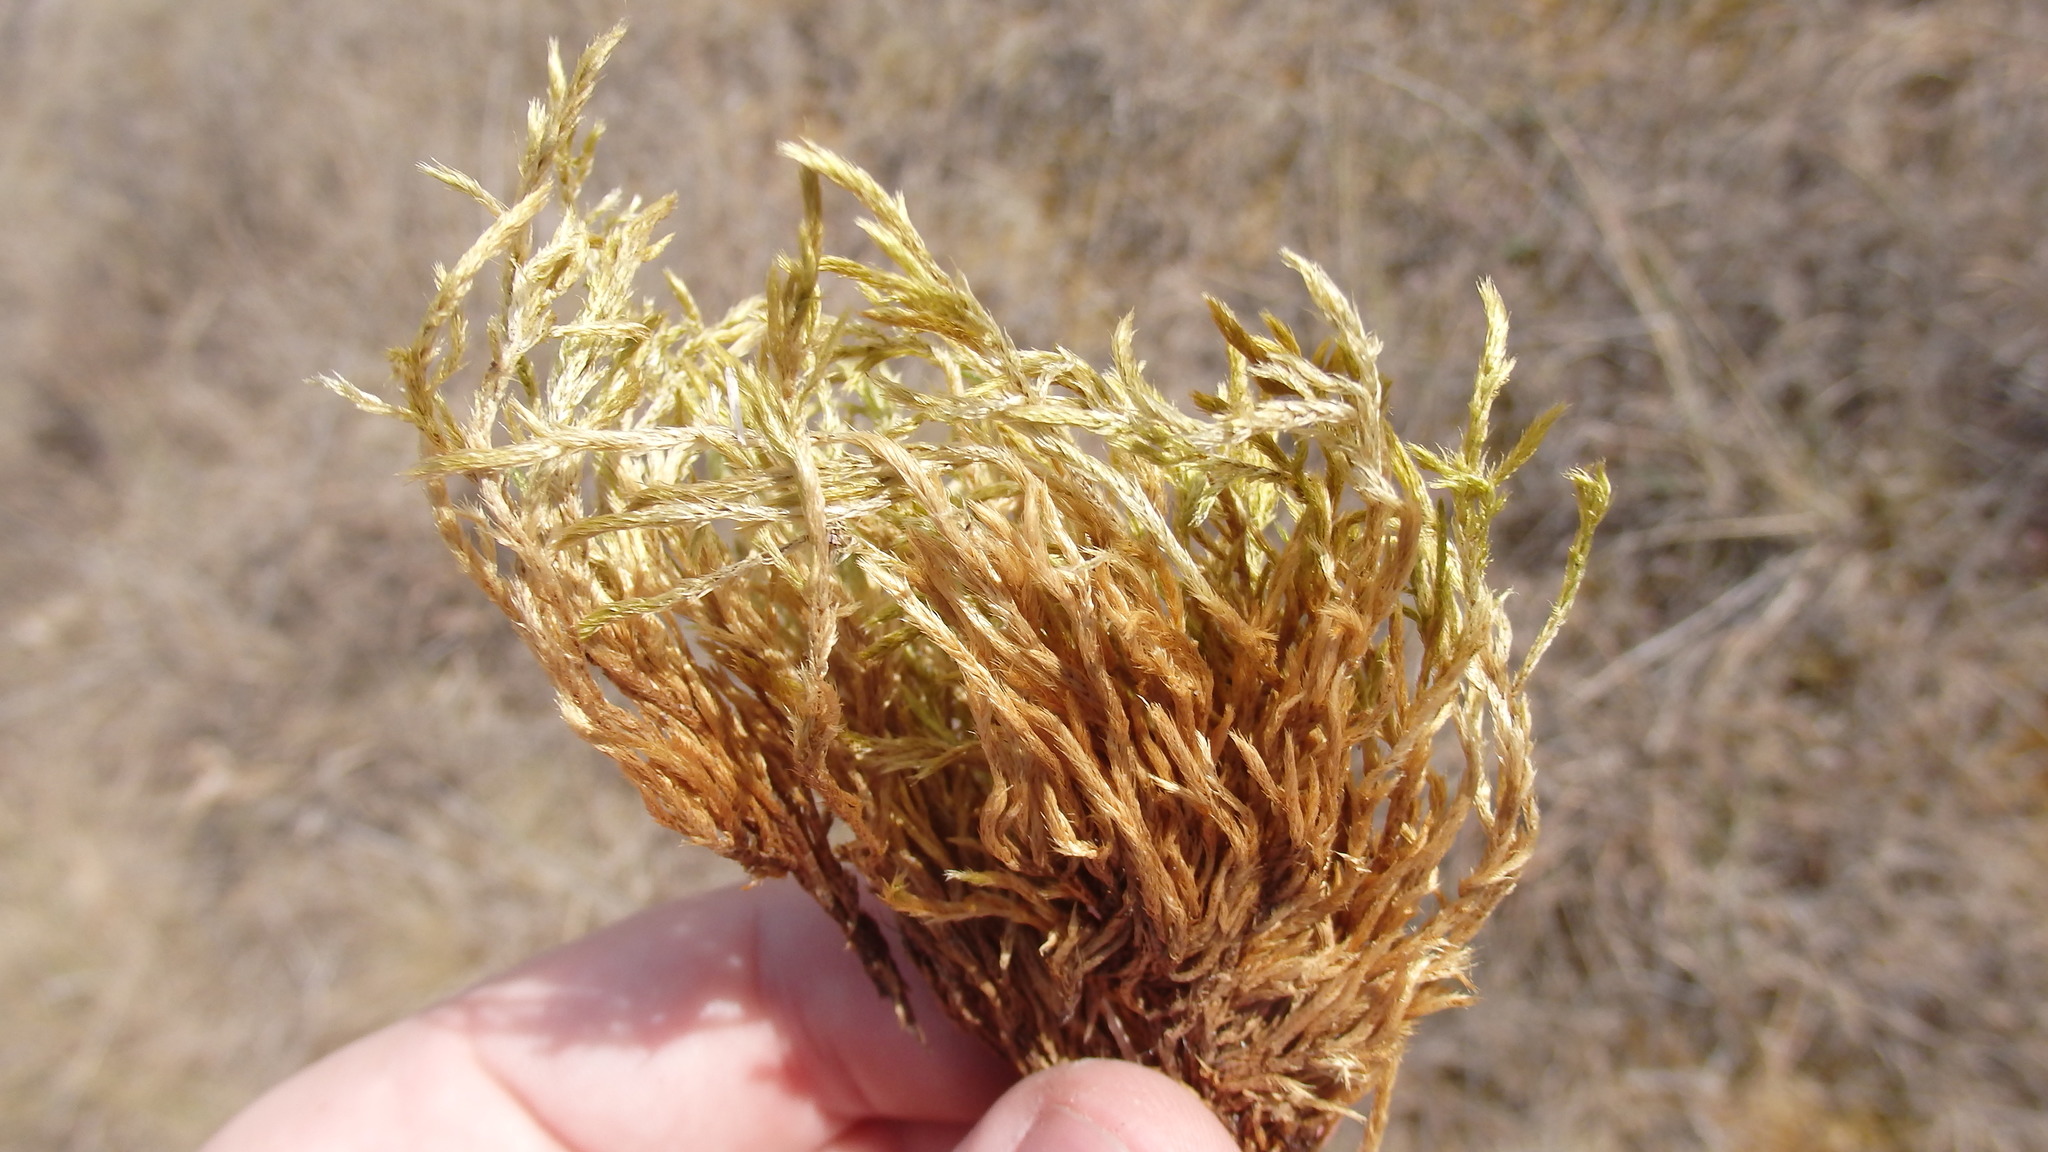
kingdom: Plantae
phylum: Bryophyta
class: Bryopsida
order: Hypnales
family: Brachytheciaceae
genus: Brachythecium
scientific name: Brachythecium albicans
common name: Whitish ragged moss
